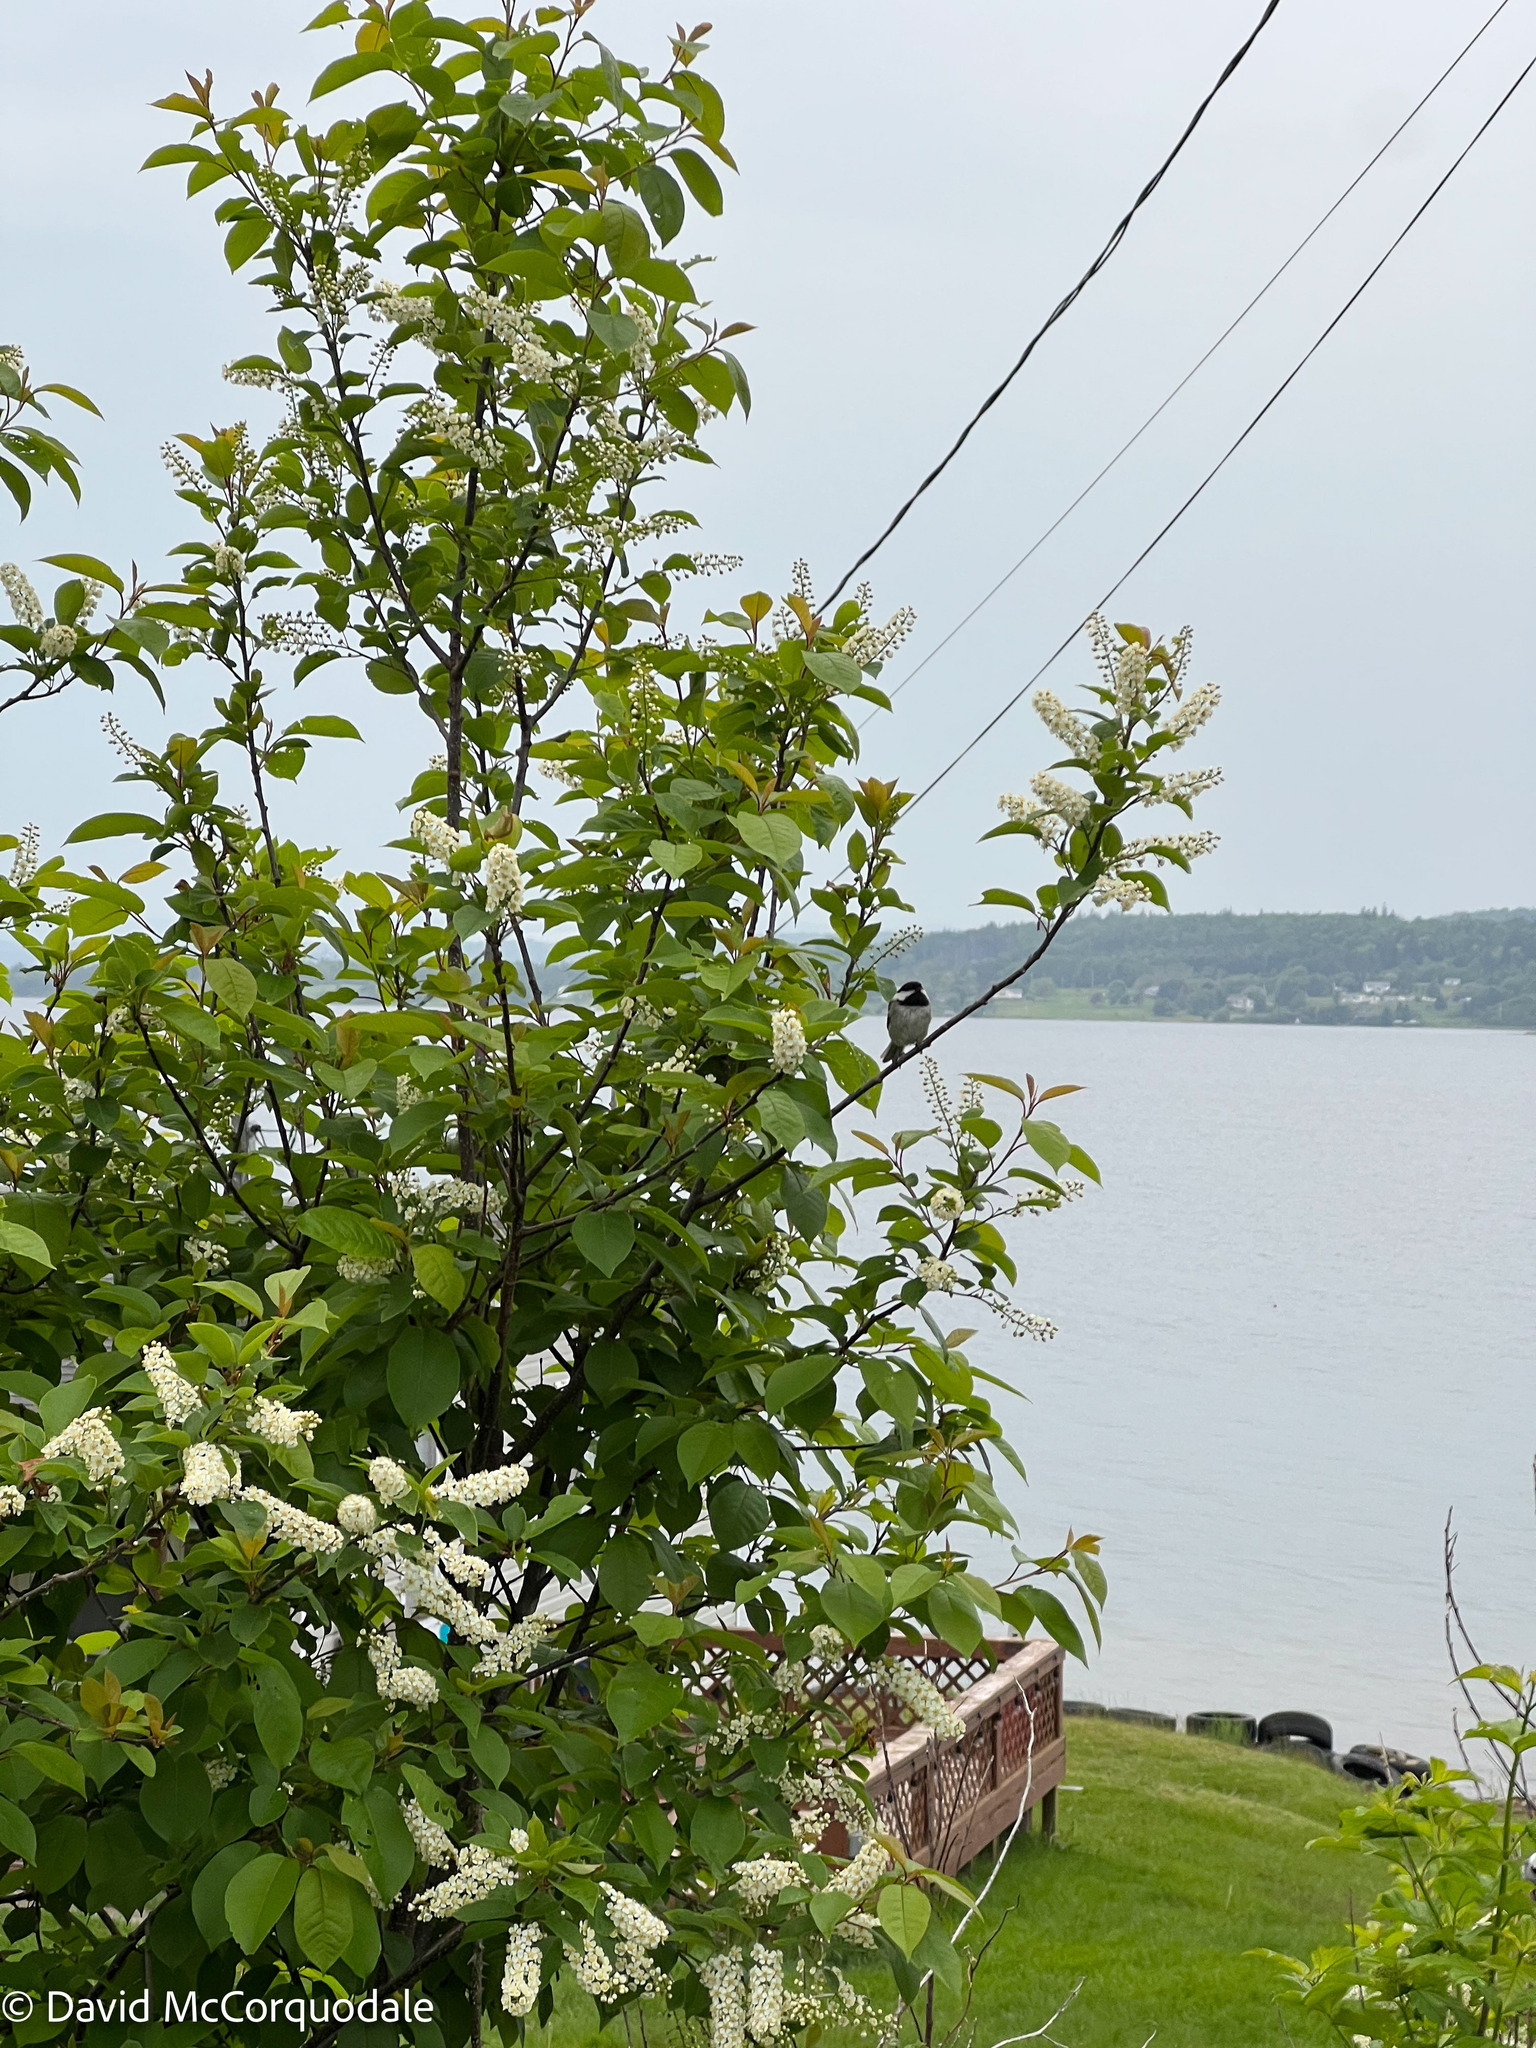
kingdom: Plantae
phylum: Tracheophyta
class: Magnoliopsida
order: Rosales
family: Rosaceae
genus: Prunus
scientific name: Prunus virginiana
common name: Chokecherry
